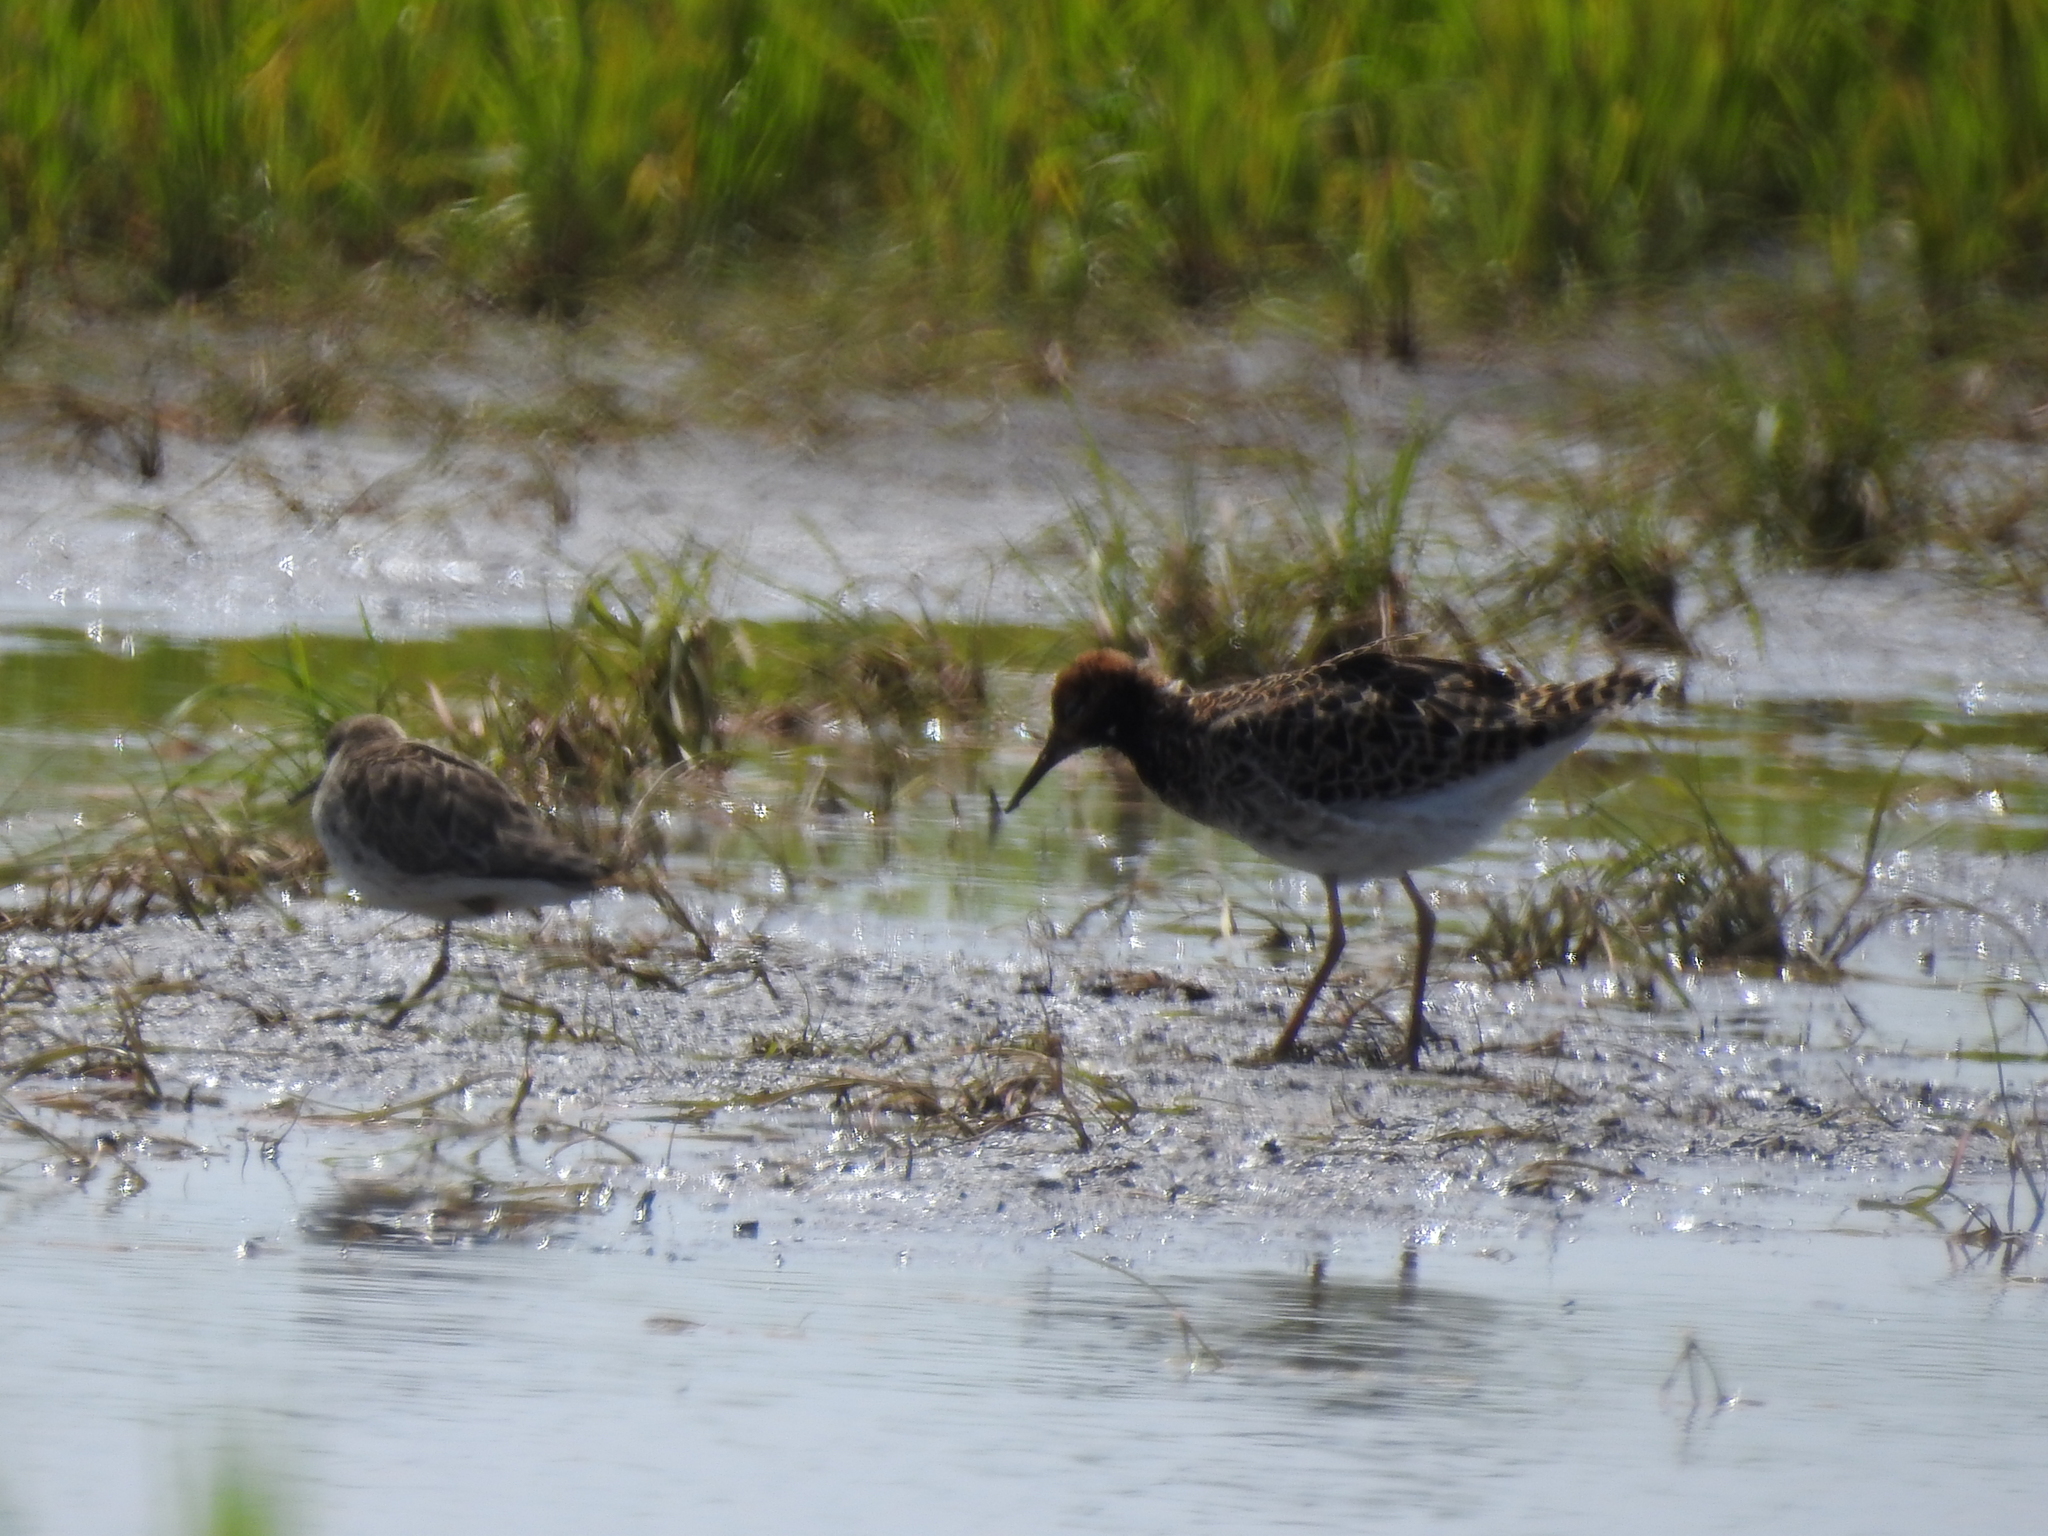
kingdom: Animalia
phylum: Chordata
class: Aves
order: Charadriiformes
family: Scolopacidae
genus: Calidris
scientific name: Calidris pugnax
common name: Ruff
